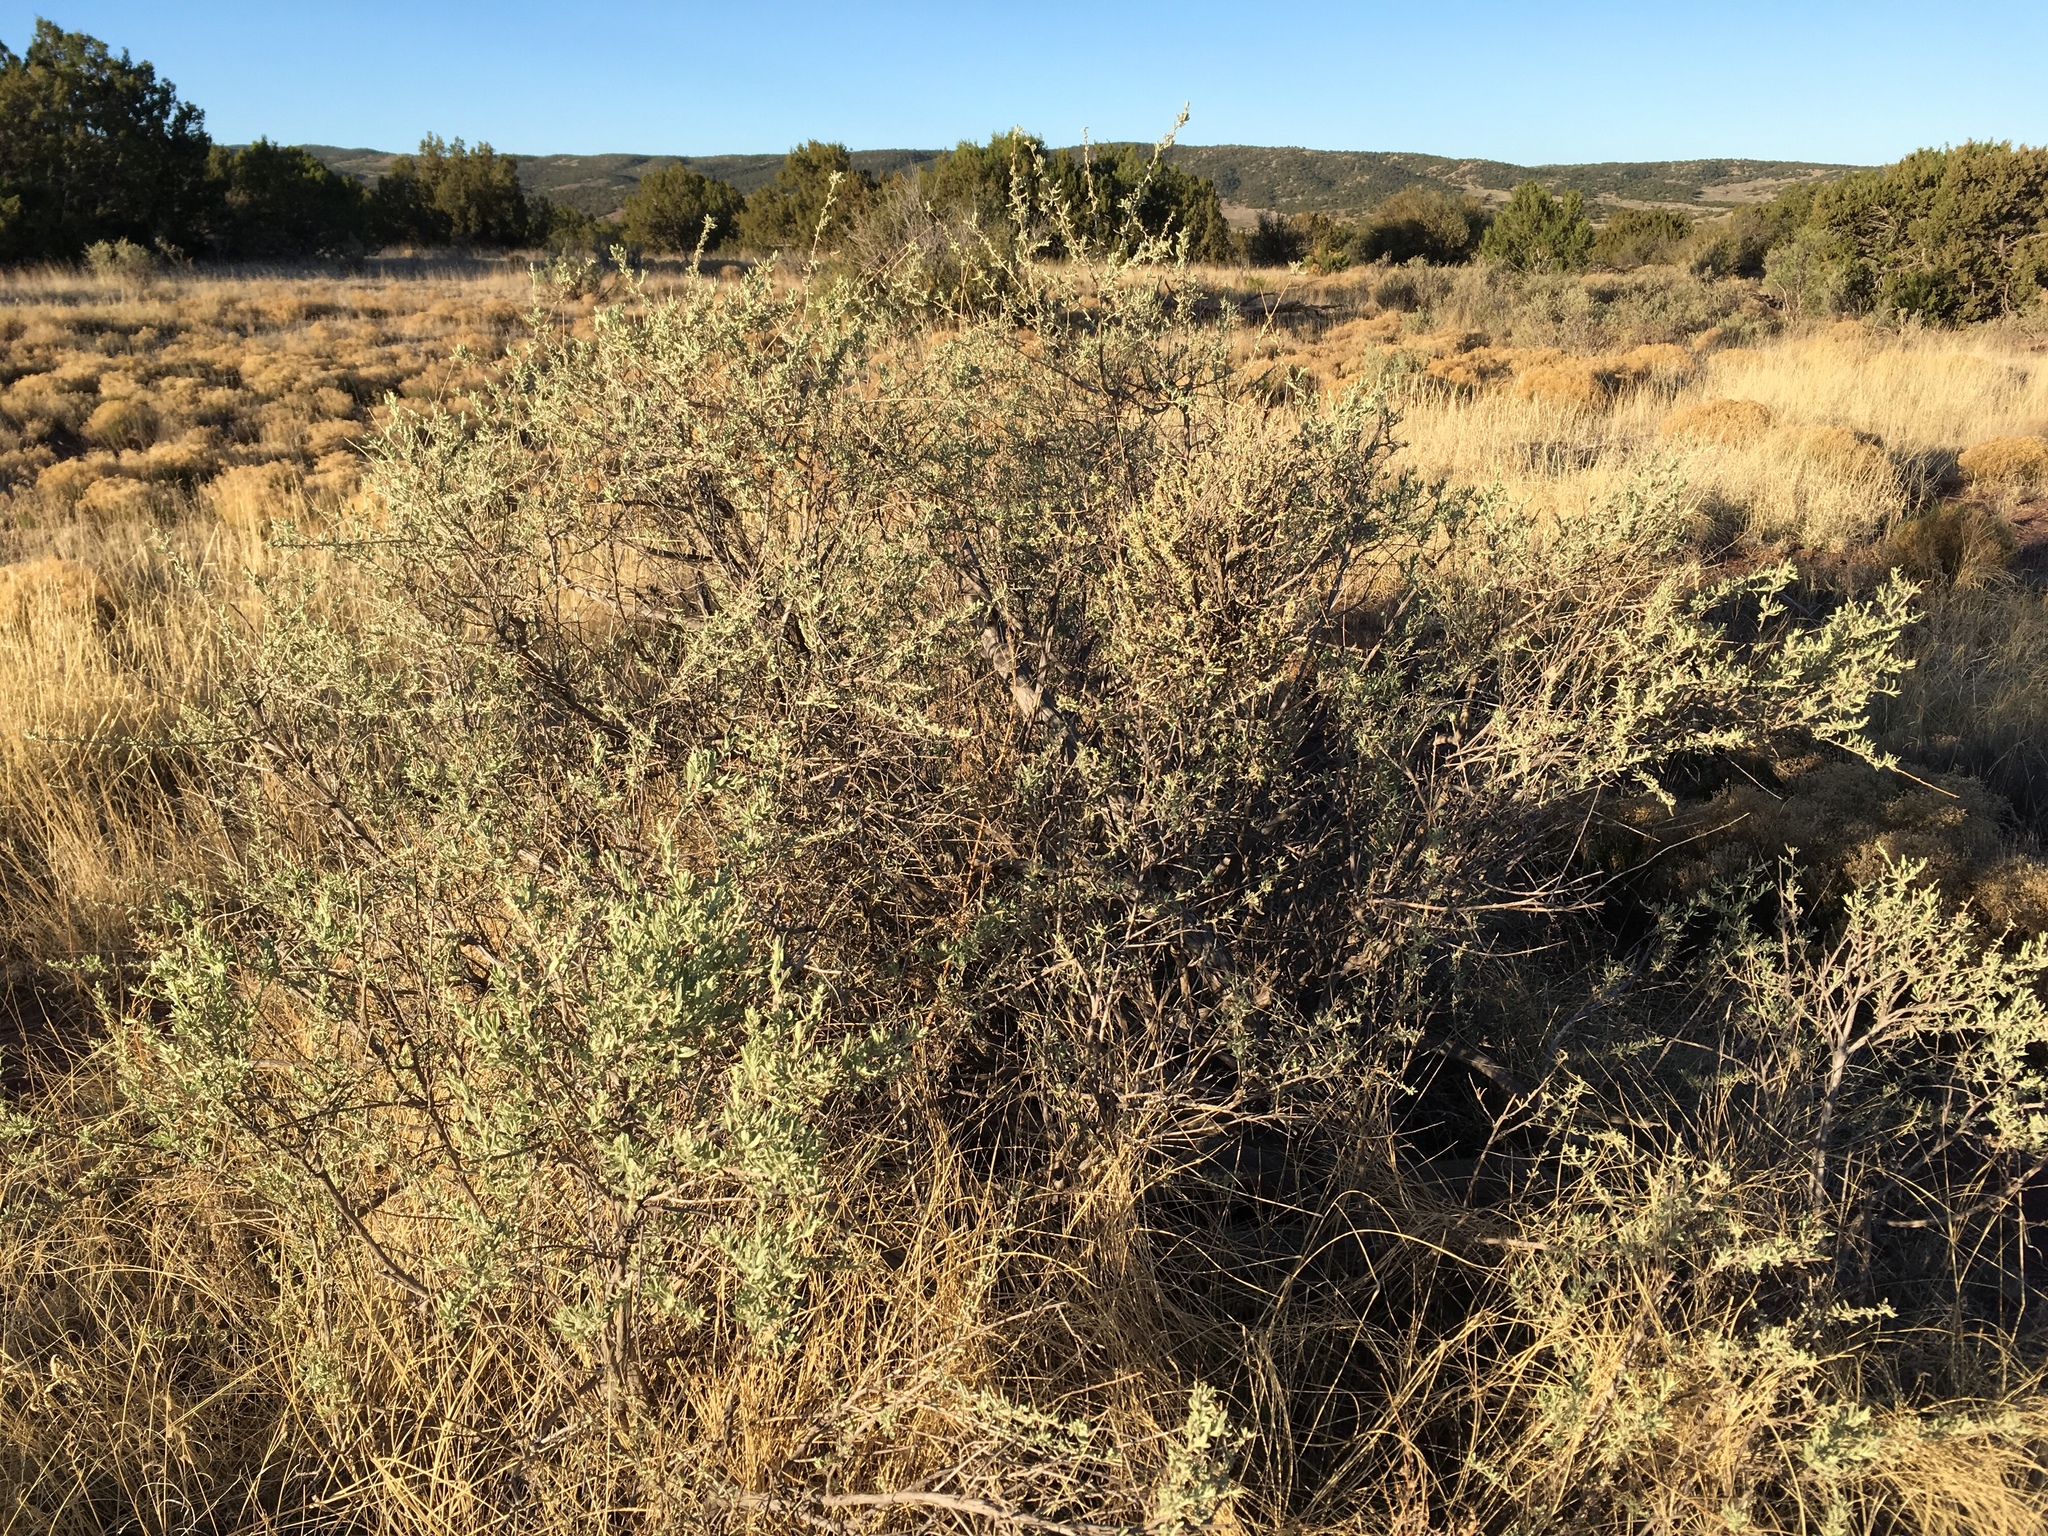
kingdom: Plantae
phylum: Tracheophyta
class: Magnoliopsida
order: Caryophyllales
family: Amaranthaceae
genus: Atriplex
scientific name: Atriplex canescens
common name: Four-wing saltbush
